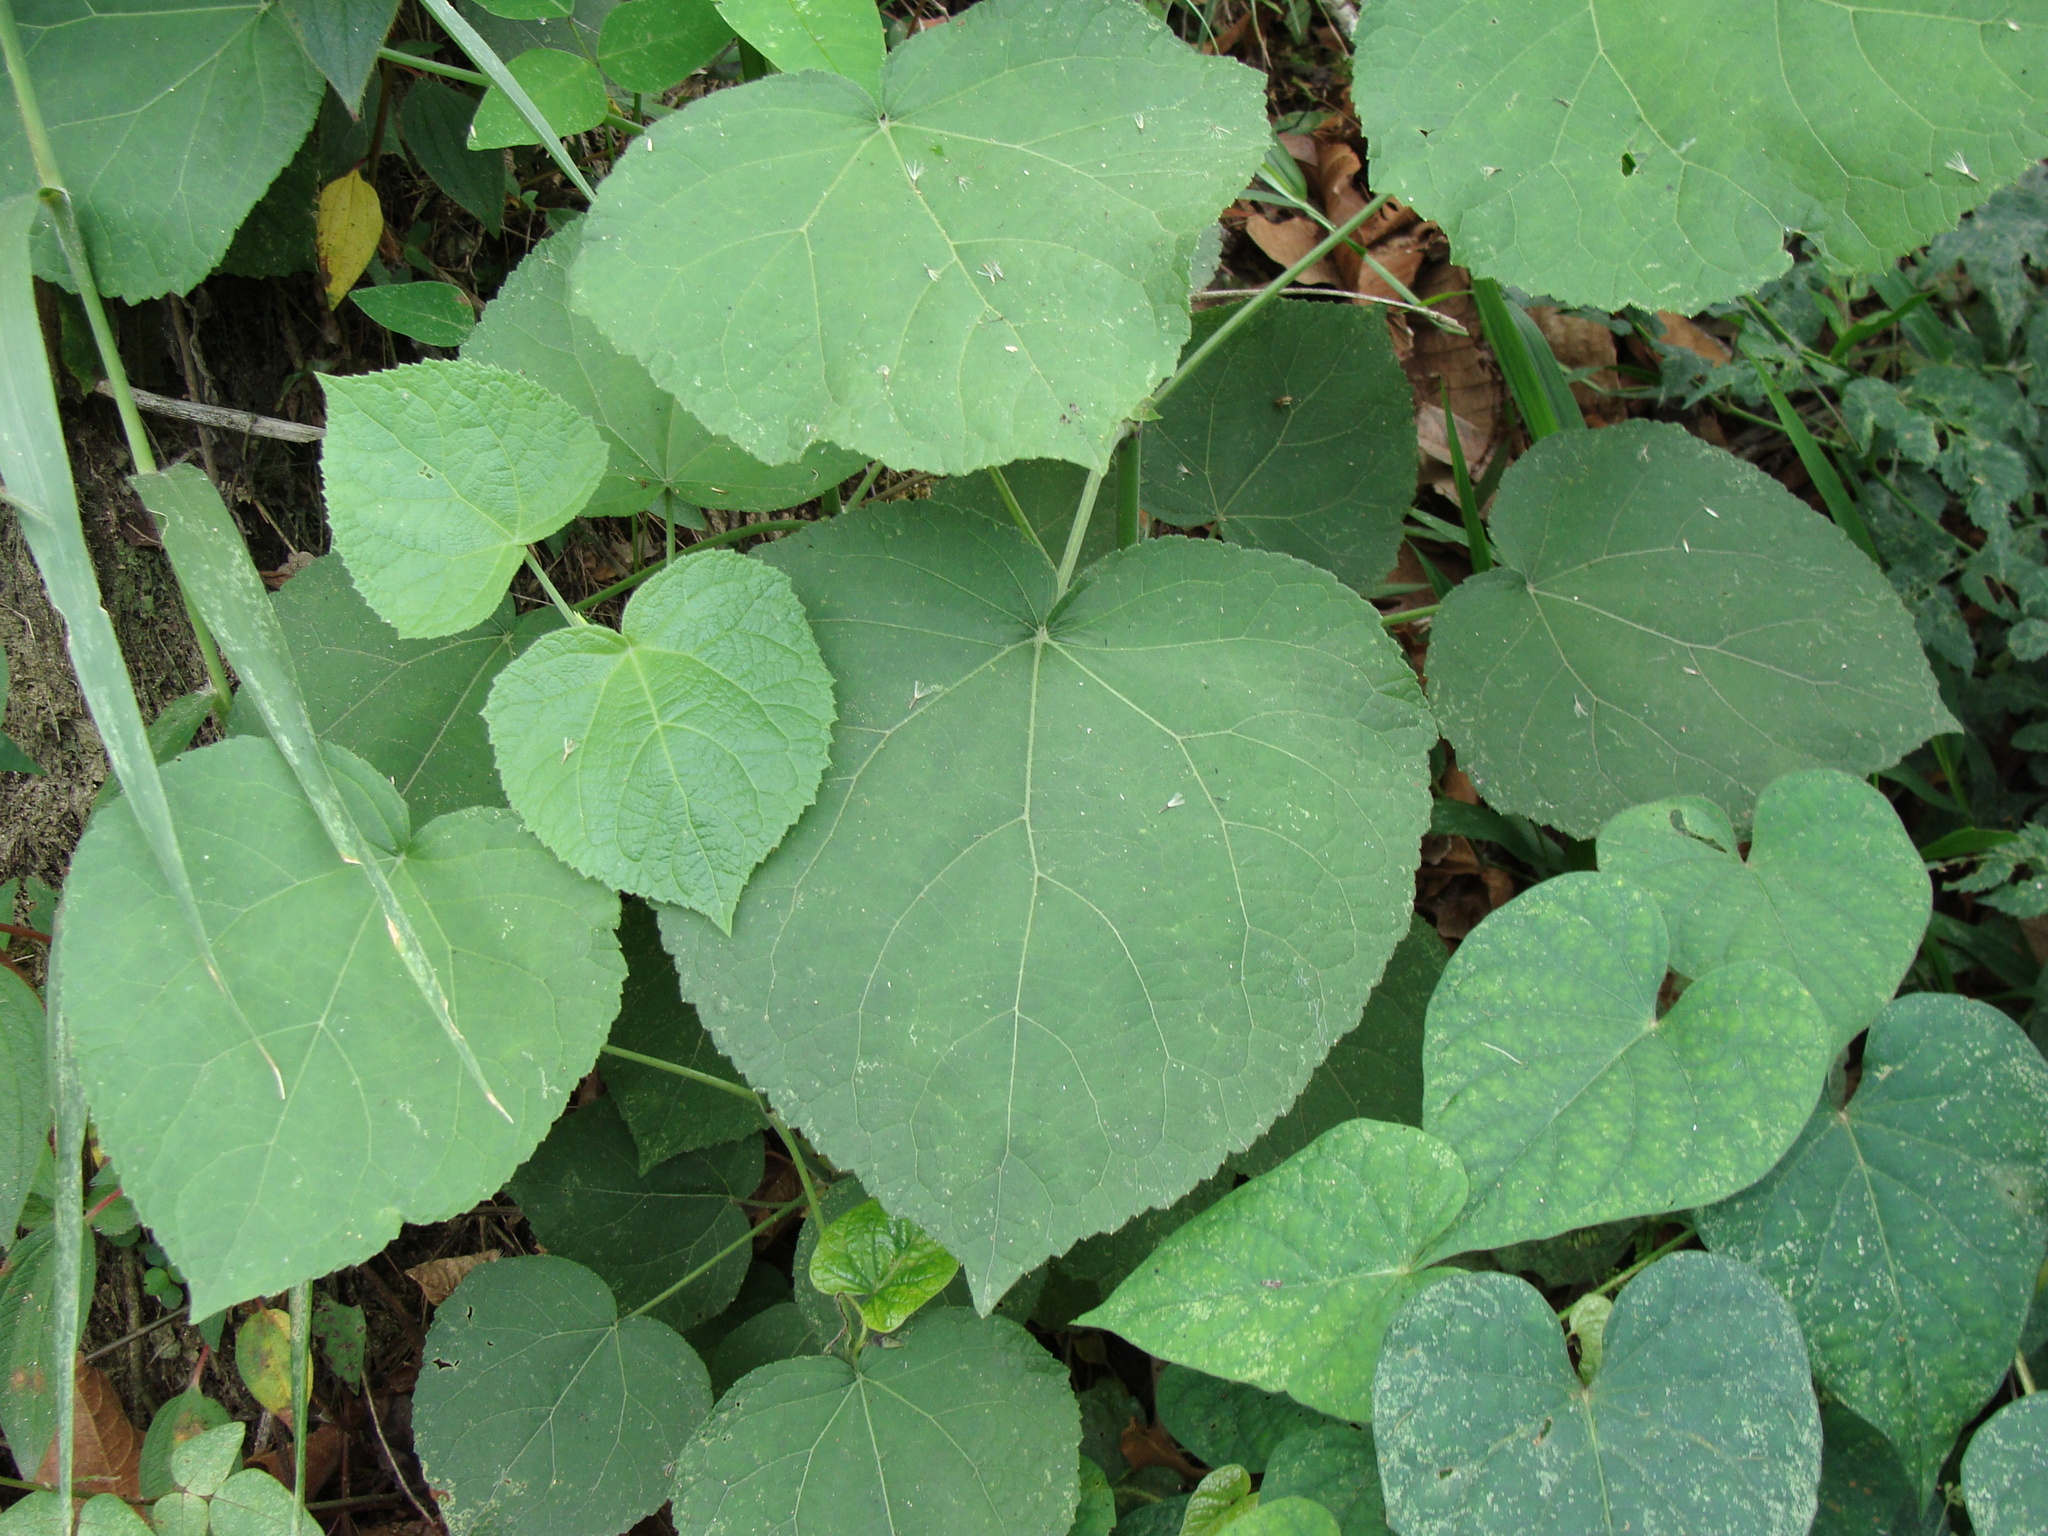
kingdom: Plantae
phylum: Tracheophyta
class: Magnoliopsida
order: Asterales
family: Asteraceae
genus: Peteravenia
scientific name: Peteravenia schultzii
